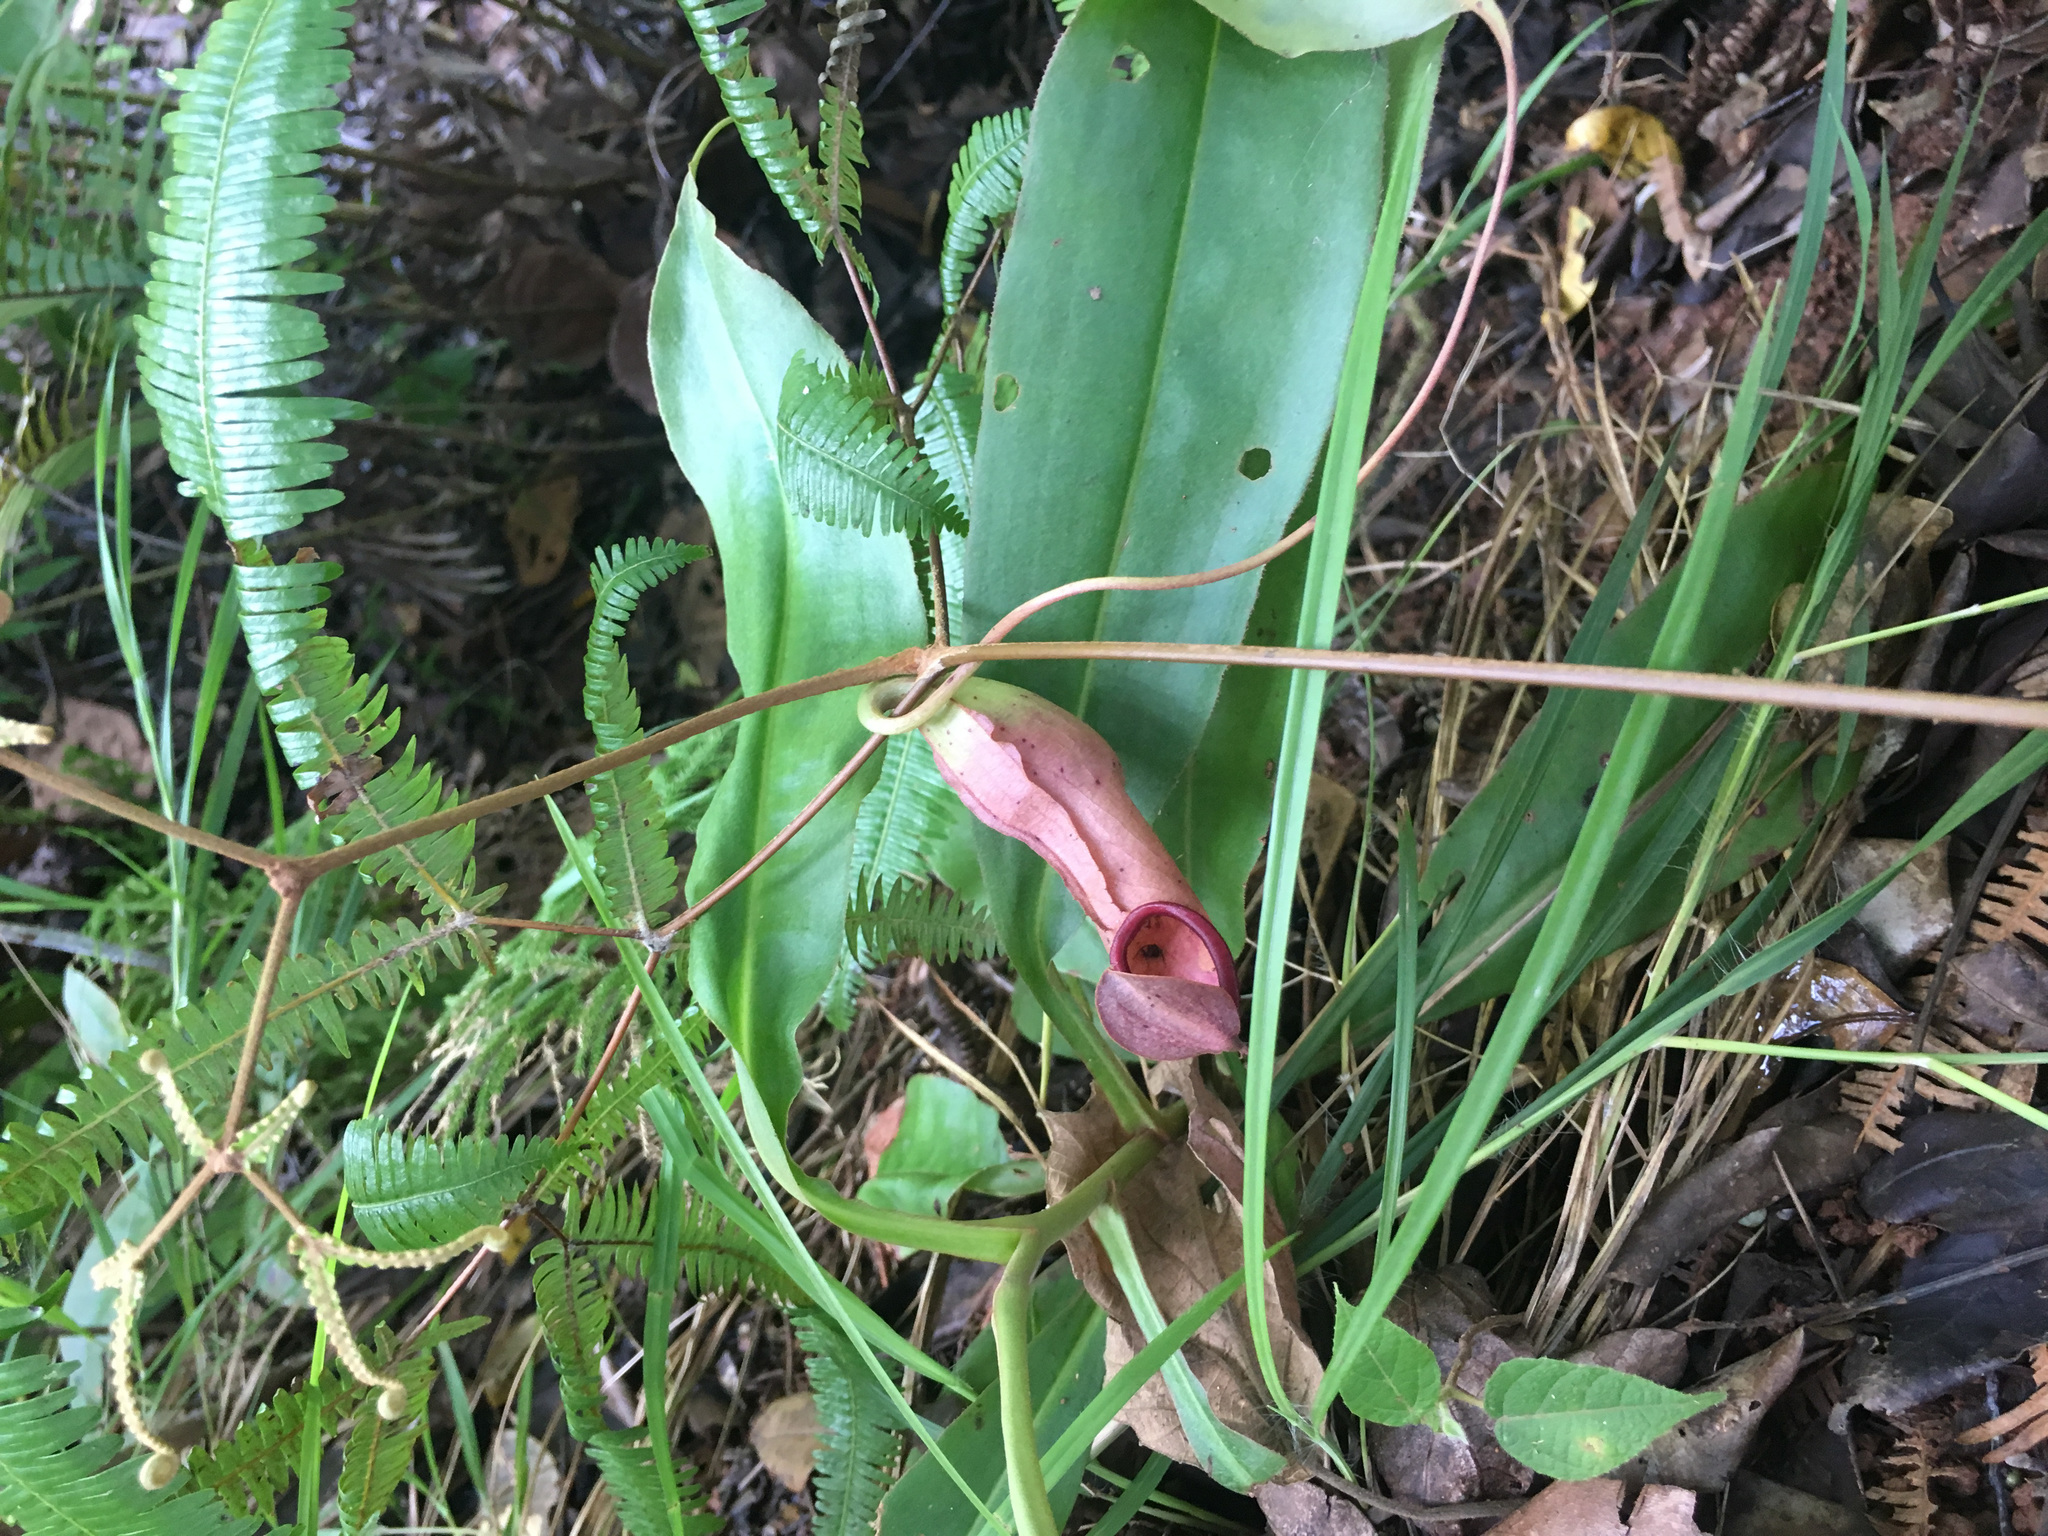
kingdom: Plantae
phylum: Tracheophyta
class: Magnoliopsida
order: Caryophyllales
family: Nepenthaceae
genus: Nepenthes
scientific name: Nepenthes mirabilis
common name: Tropical pitcherplant
